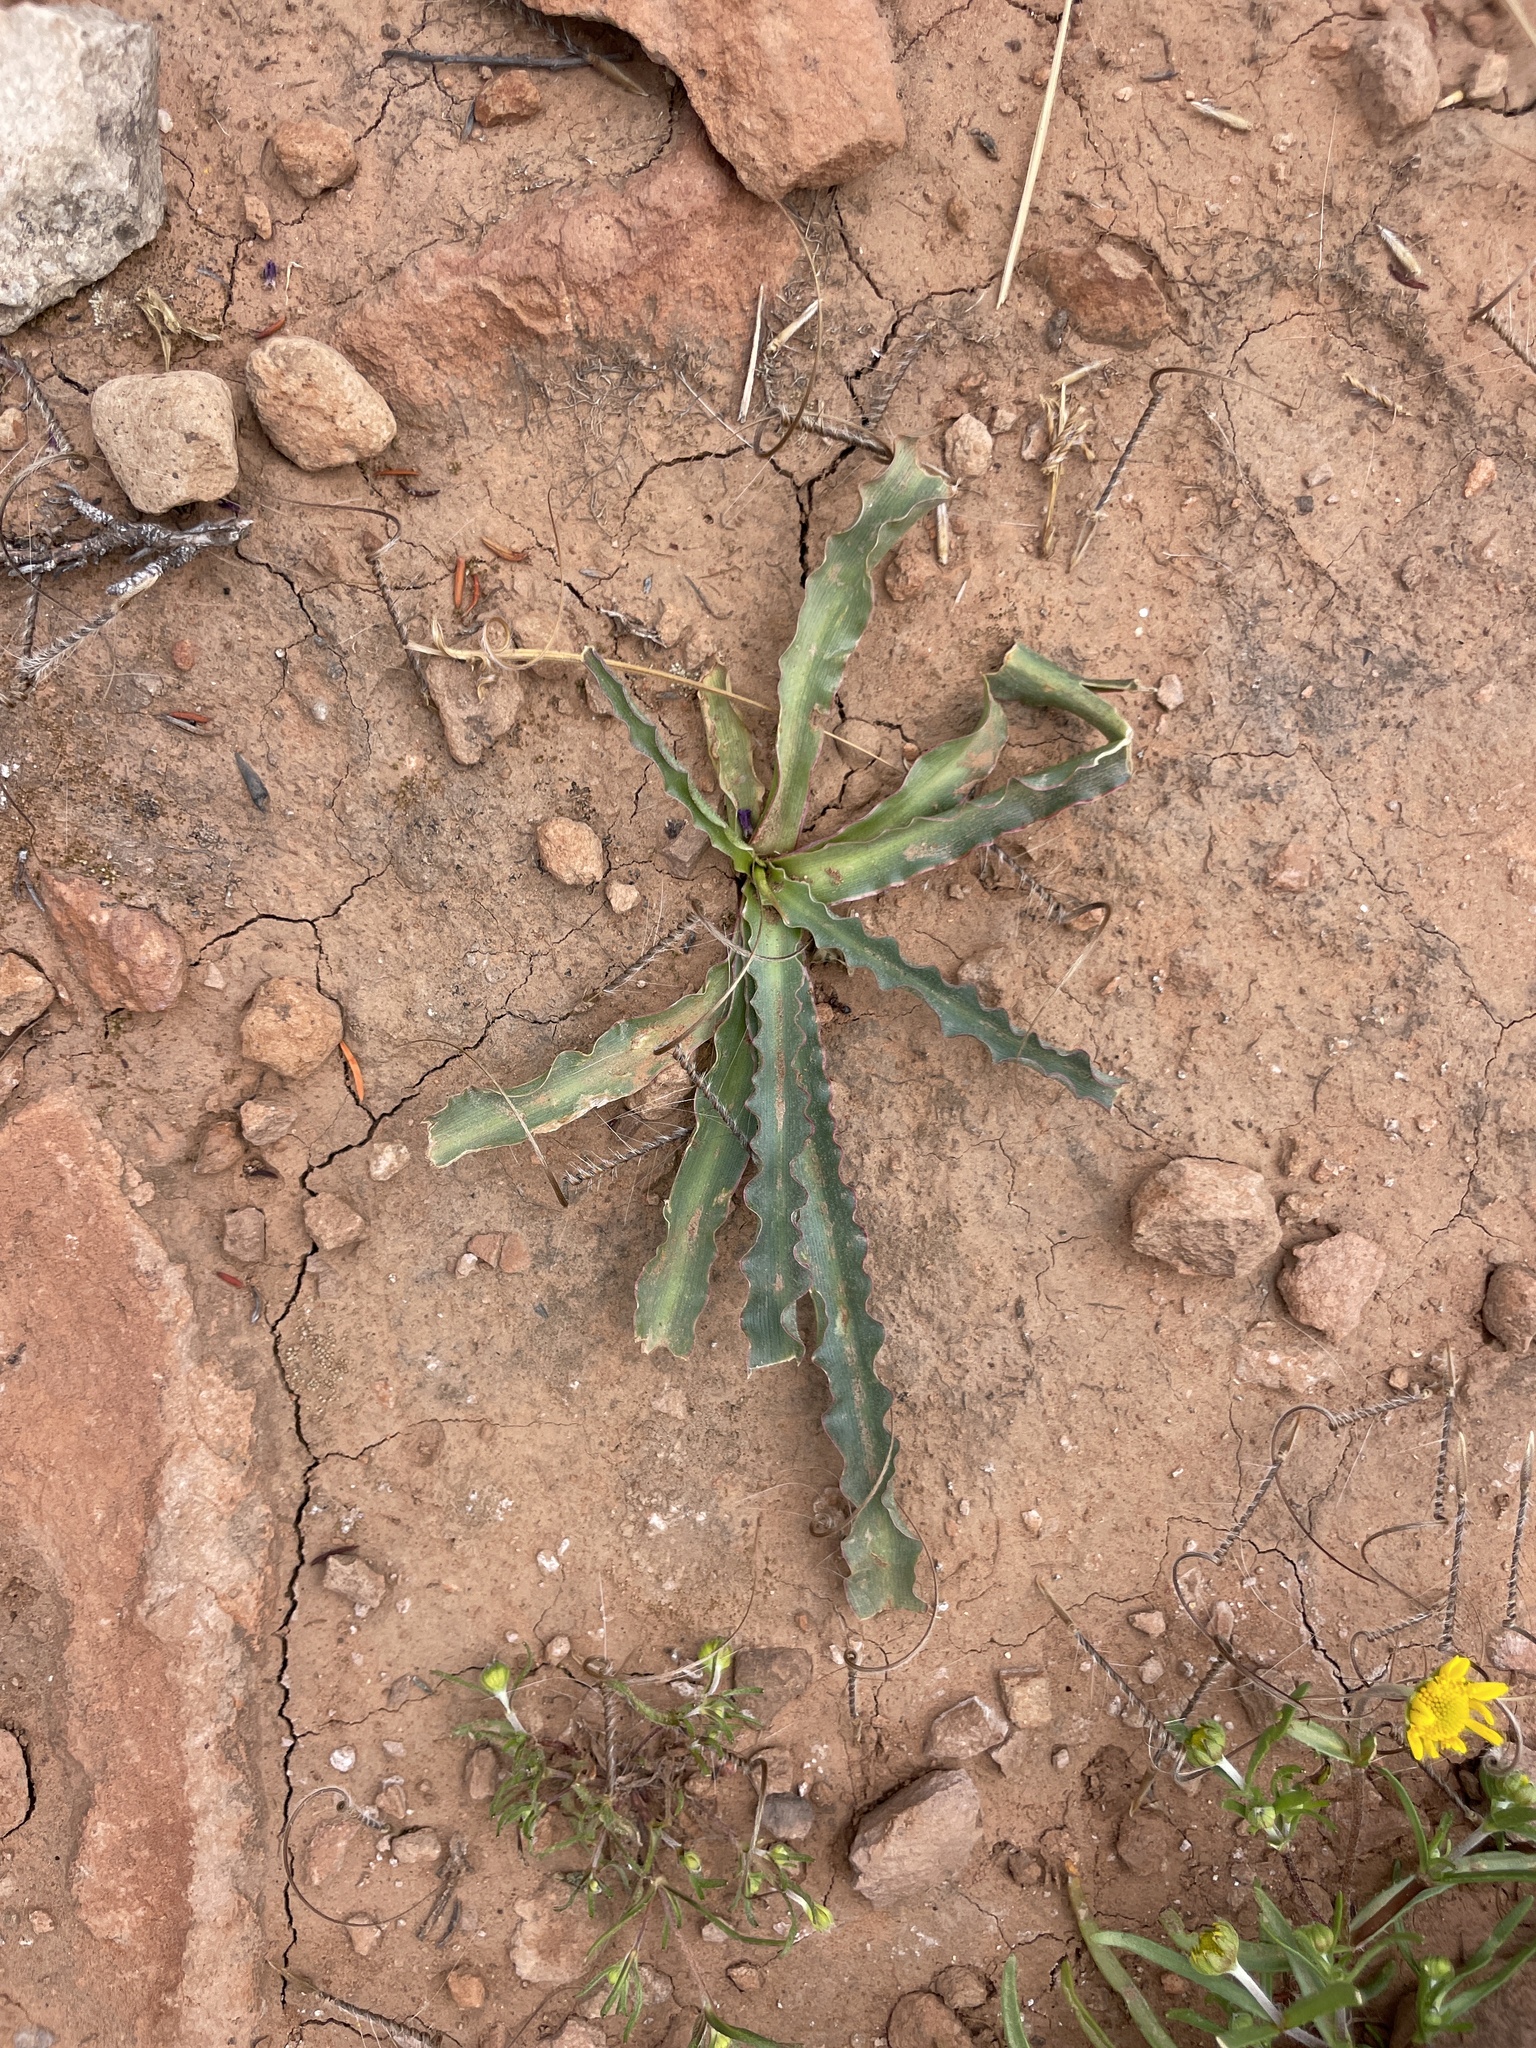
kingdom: Plantae
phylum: Tracheophyta
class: Liliopsida
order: Asparagales
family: Asparagaceae
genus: Hooveria
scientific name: Hooveria parviflora
